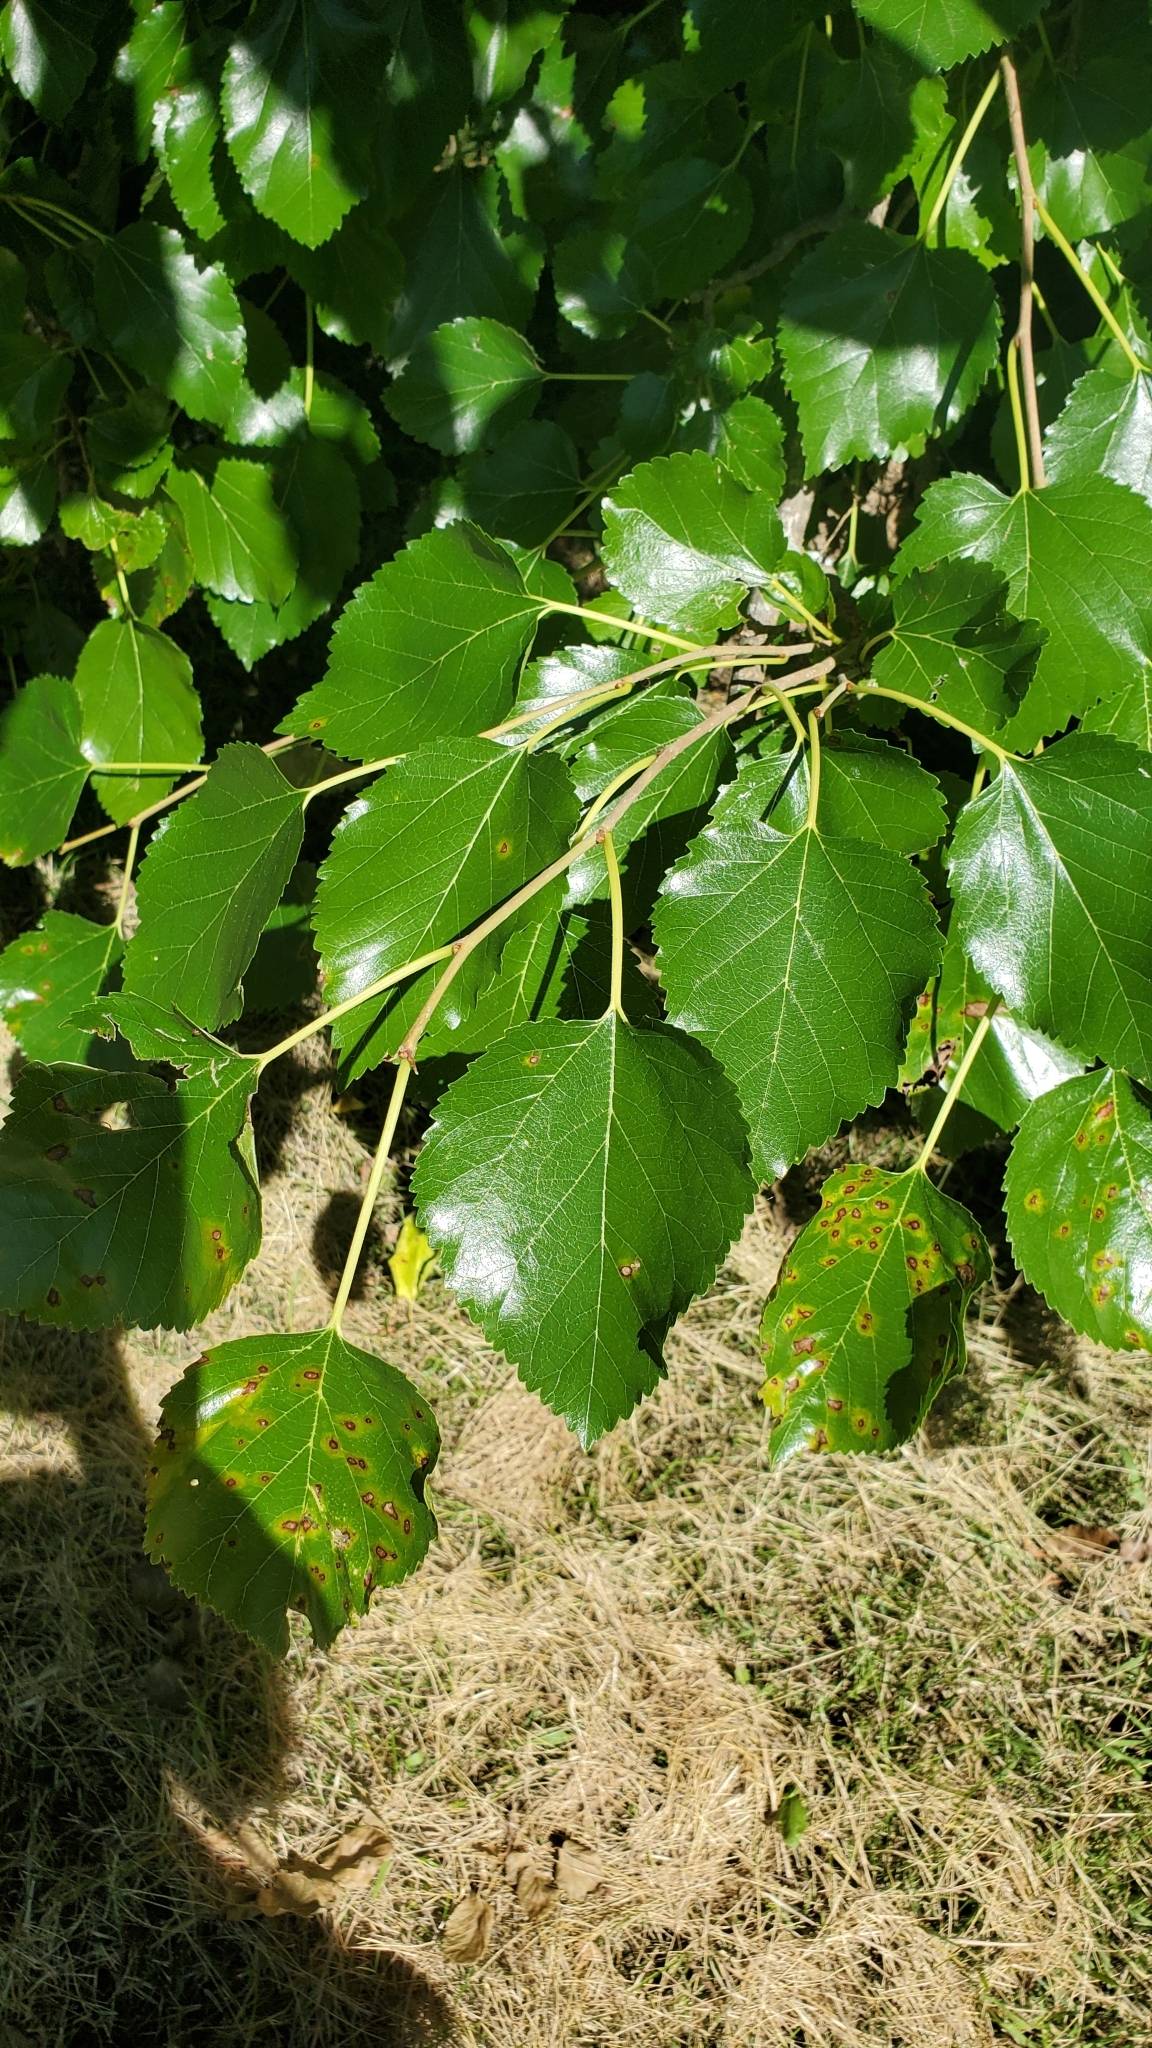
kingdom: Plantae
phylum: Tracheophyta
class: Magnoliopsida
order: Rosales
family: Moraceae
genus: Morus
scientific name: Morus alba
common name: White mulberry
